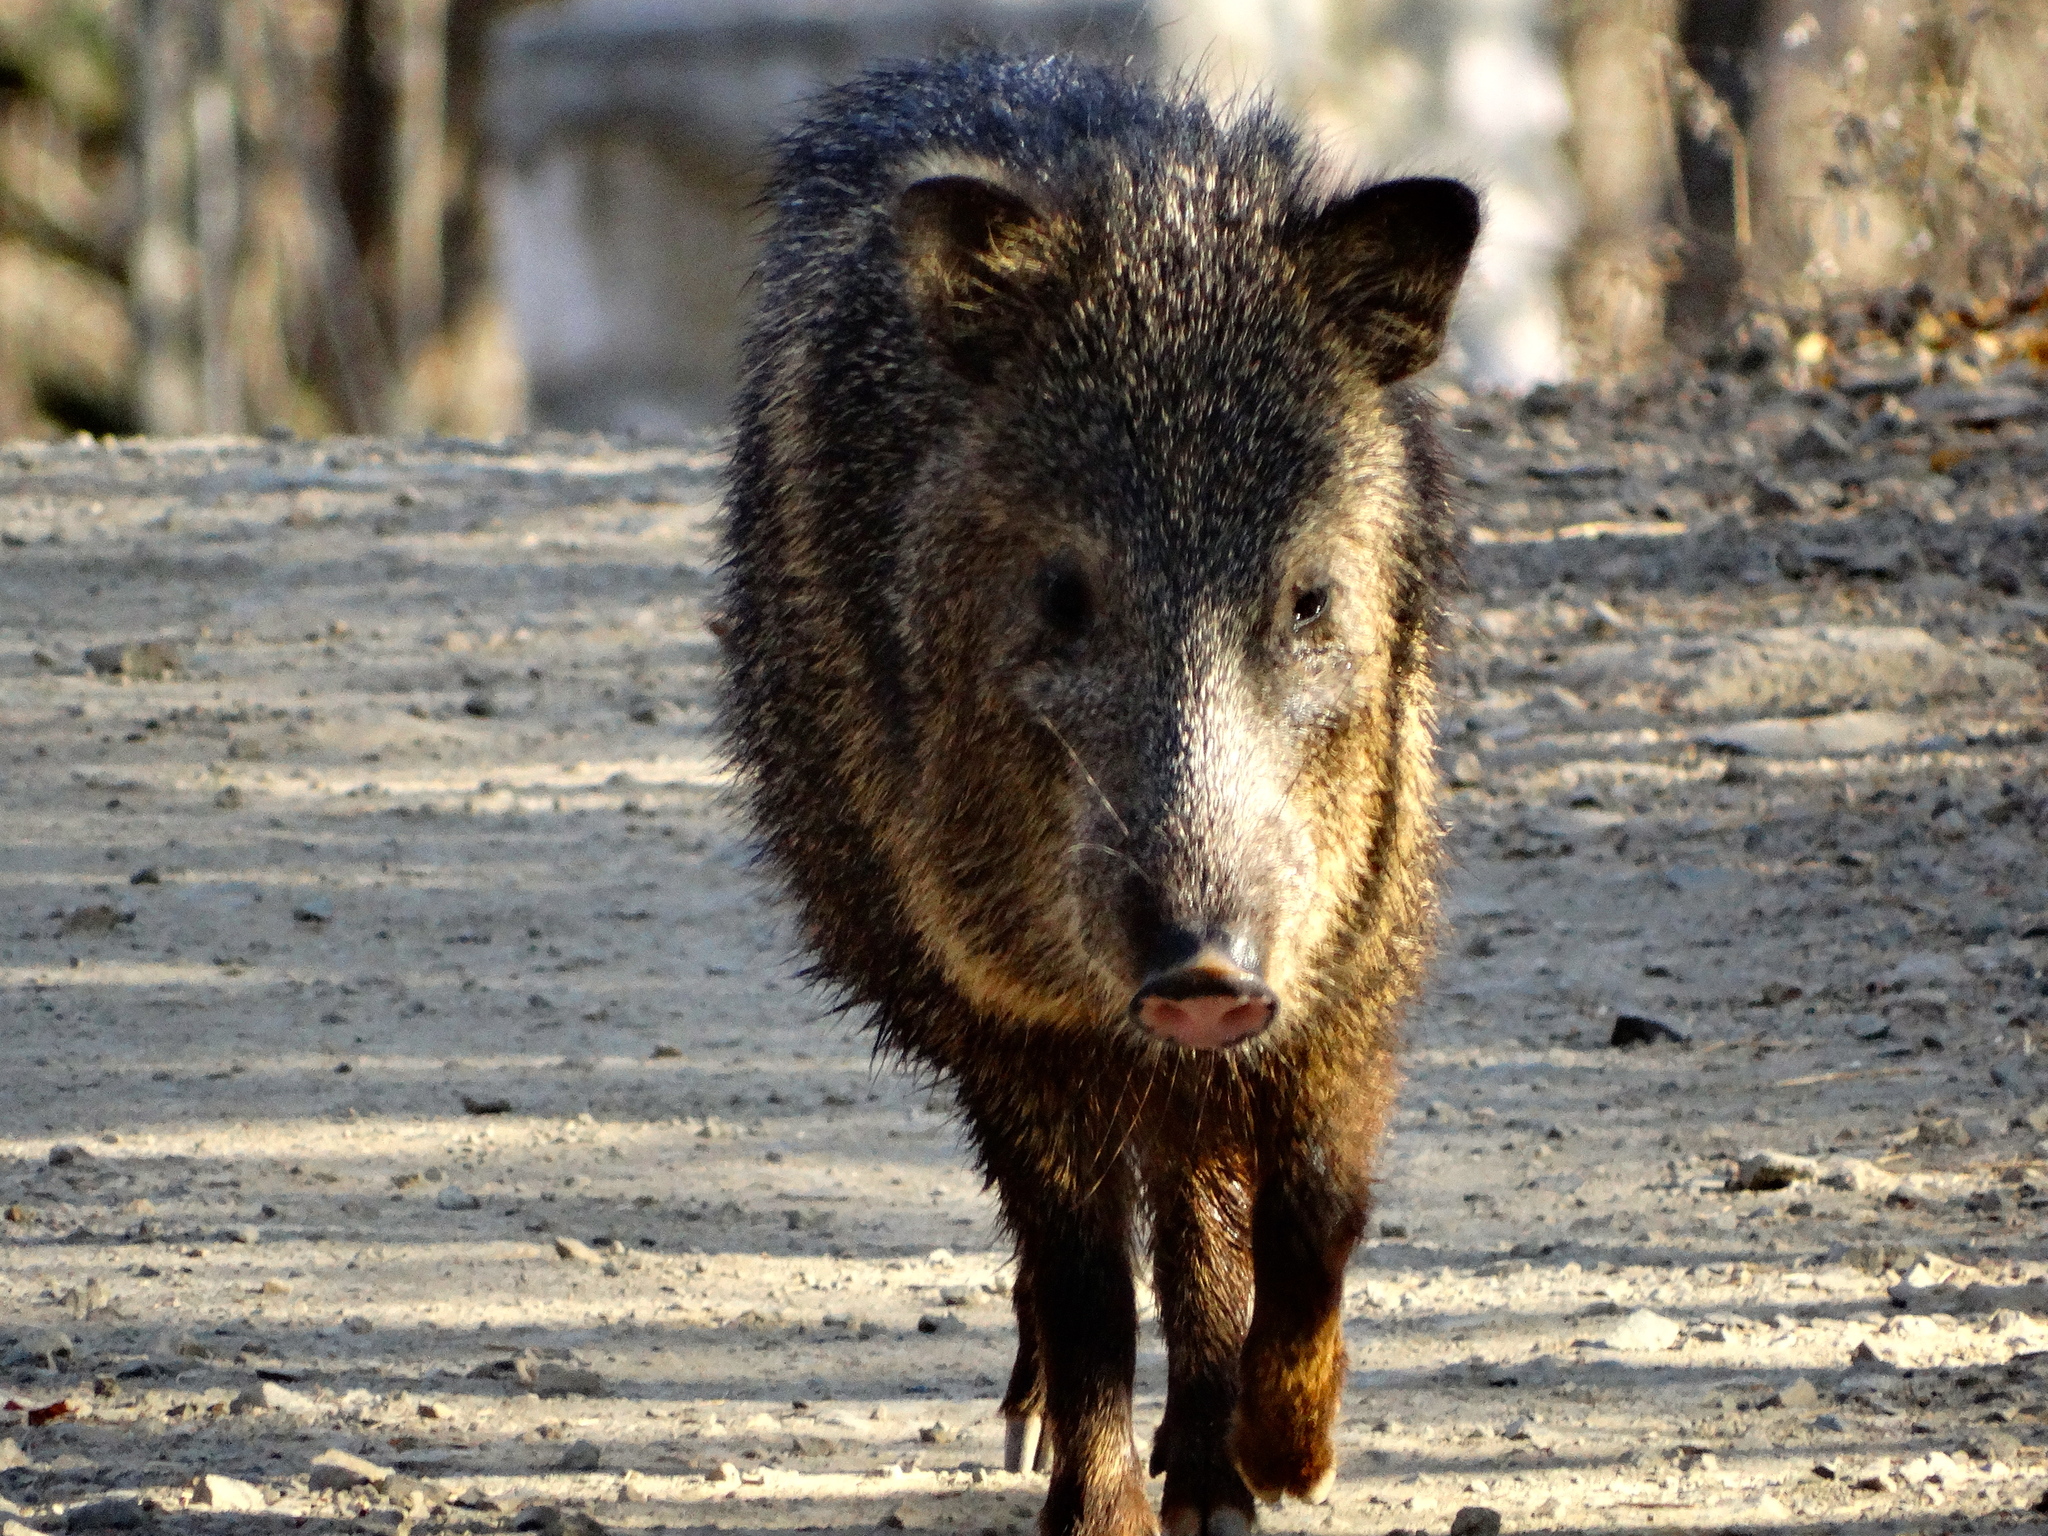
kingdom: Animalia
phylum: Chordata
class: Mammalia
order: Artiodactyla
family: Tayassuidae
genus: Pecari
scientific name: Pecari tajacu
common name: Collared peccary
